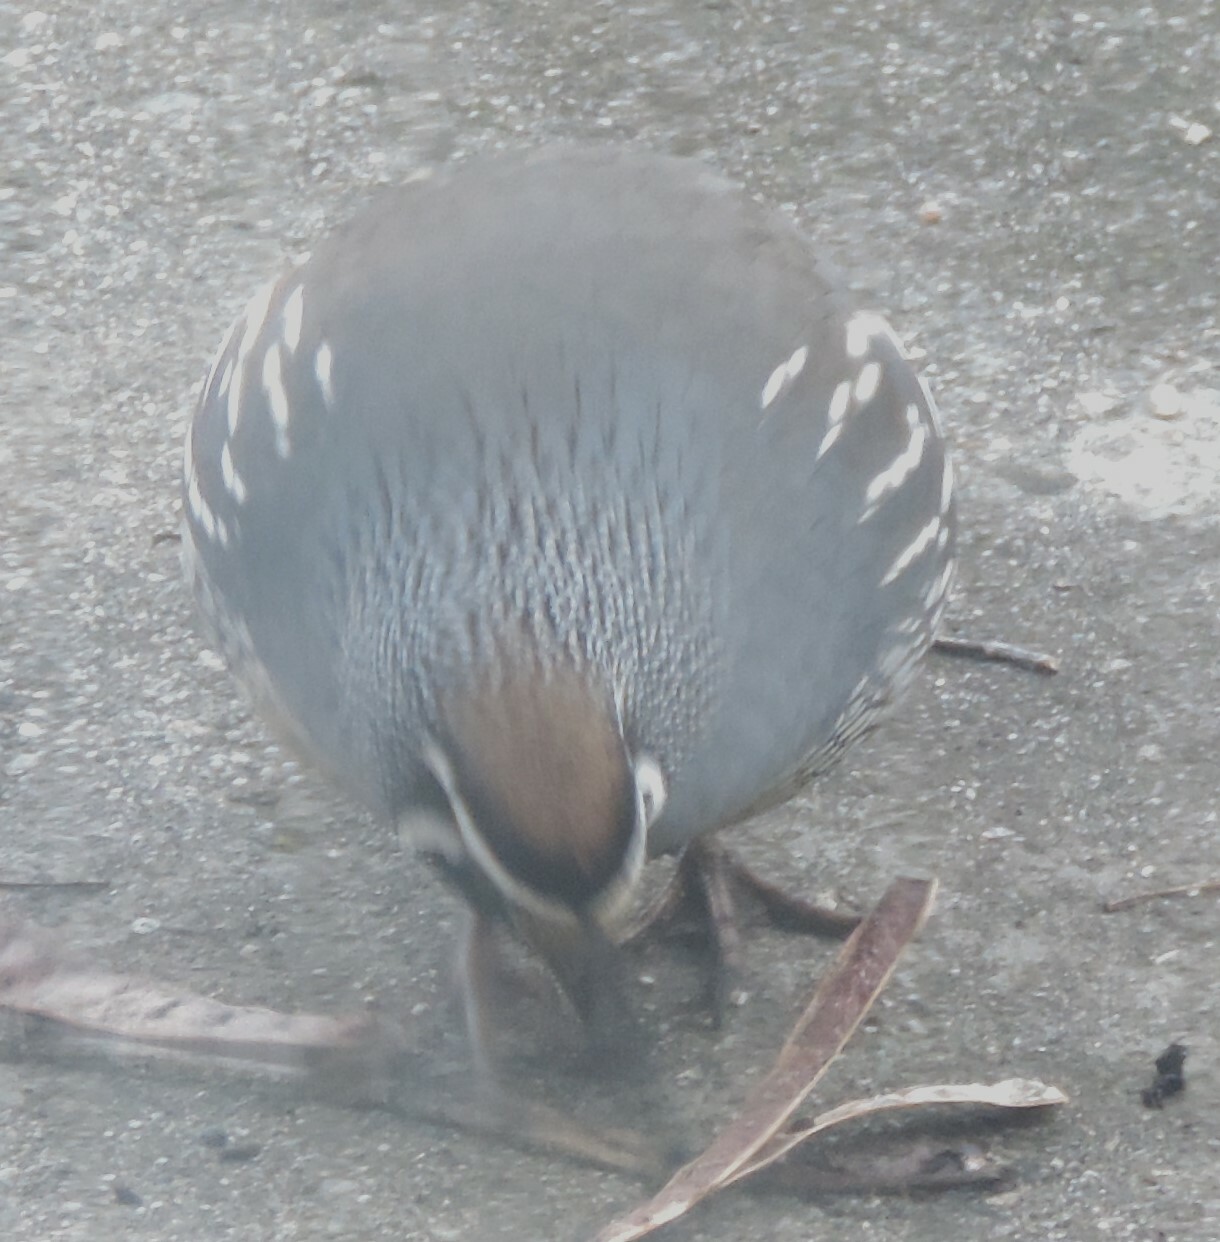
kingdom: Animalia
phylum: Chordata
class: Aves
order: Galliformes
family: Odontophoridae
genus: Callipepla
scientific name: Callipepla californica
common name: California quail
